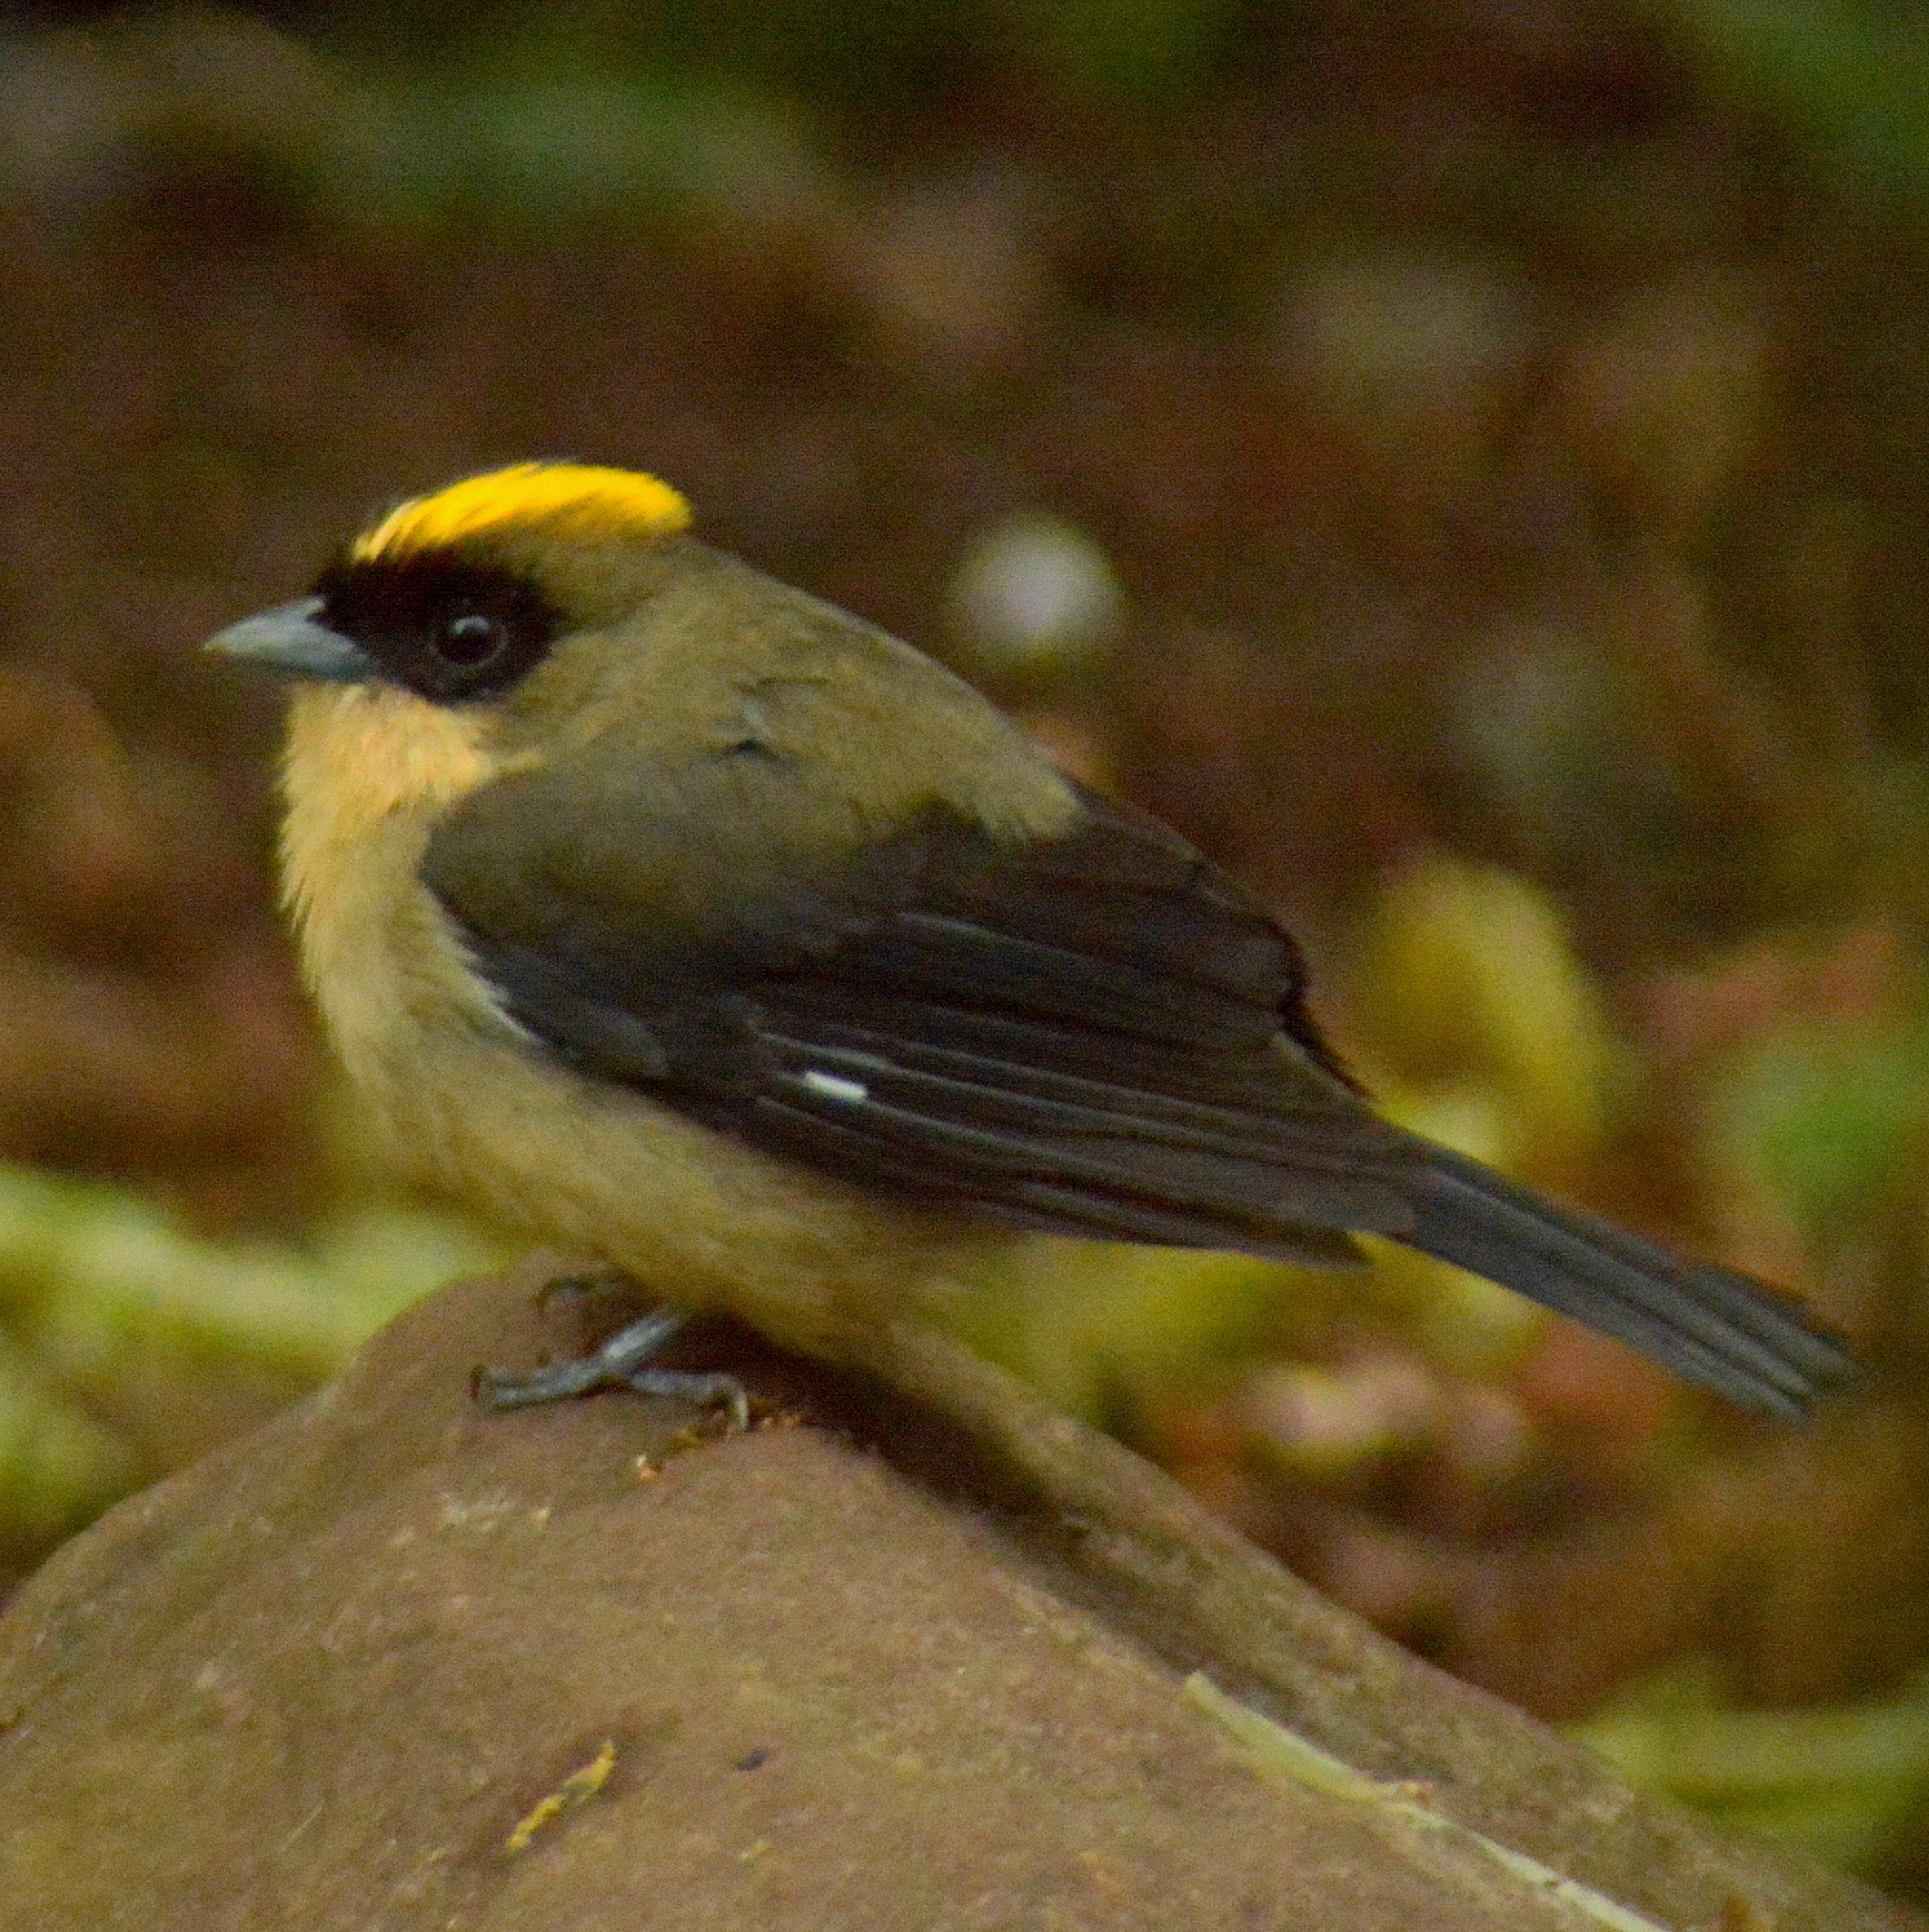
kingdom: Animalia
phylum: Chordata
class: Aves
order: Passeriformes
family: Thraupidae
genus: Trichothraupis
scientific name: Trichothraupis melanops
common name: Black-goggled tanager
